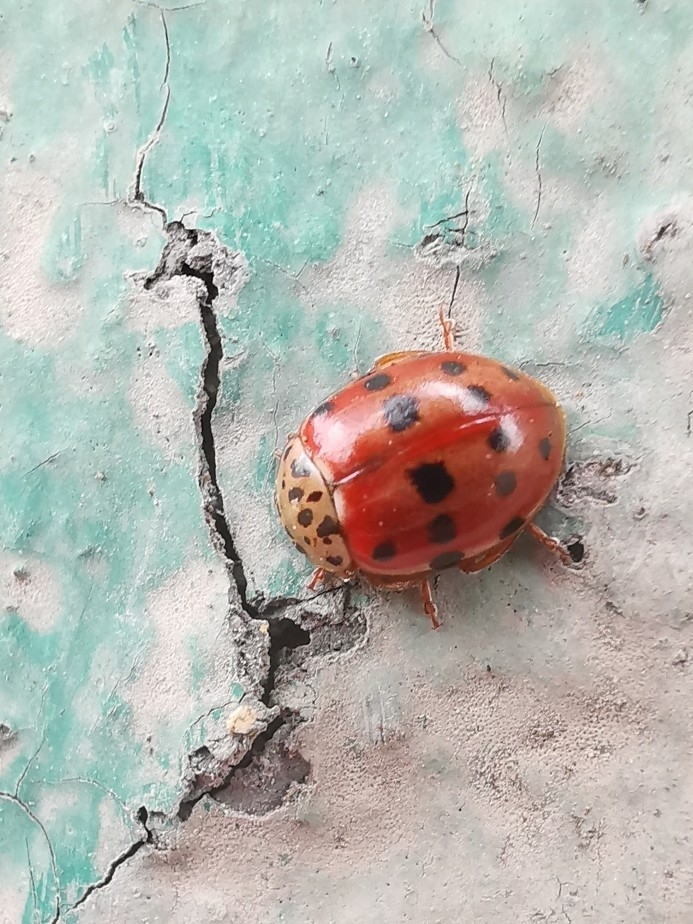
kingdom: Animalia
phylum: Arthropoda
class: Insecta
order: Coleoptera
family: Coccinellidae
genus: Harmonia
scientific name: Harmonia quadripunctata
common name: Cream-streaked ladybird
